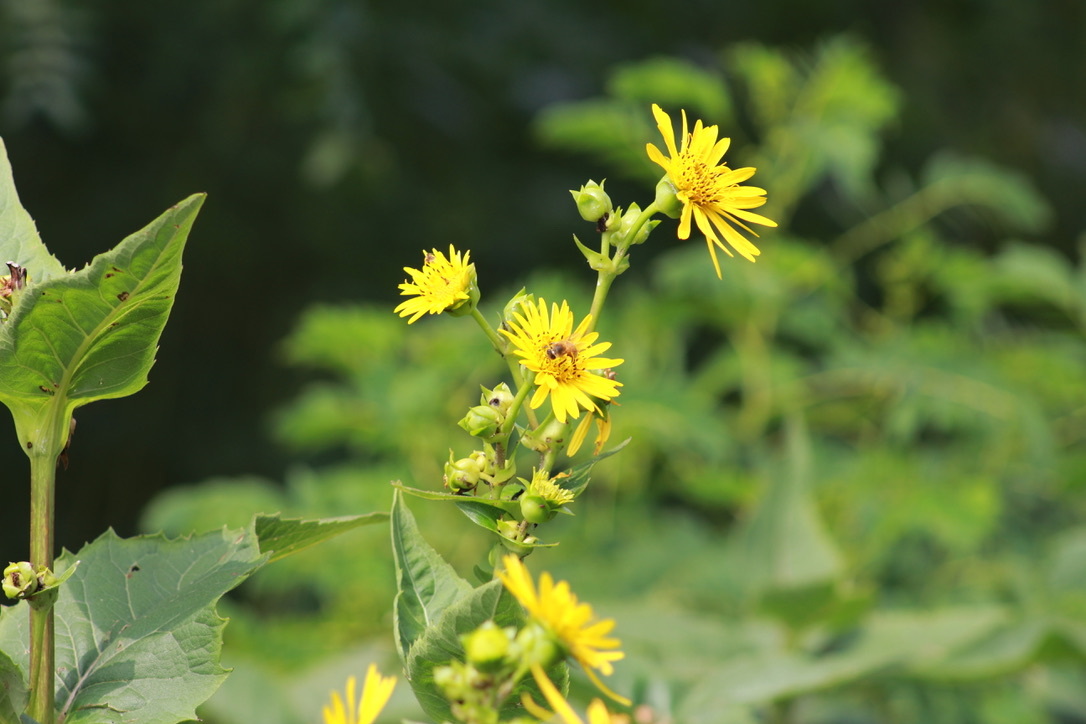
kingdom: Plantae
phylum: Tracheophyta
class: Magnoliopsida
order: Asterales
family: Asteraceae
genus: Silphium
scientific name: Silphium integrifolium
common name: Whole-leaf rosinweed
